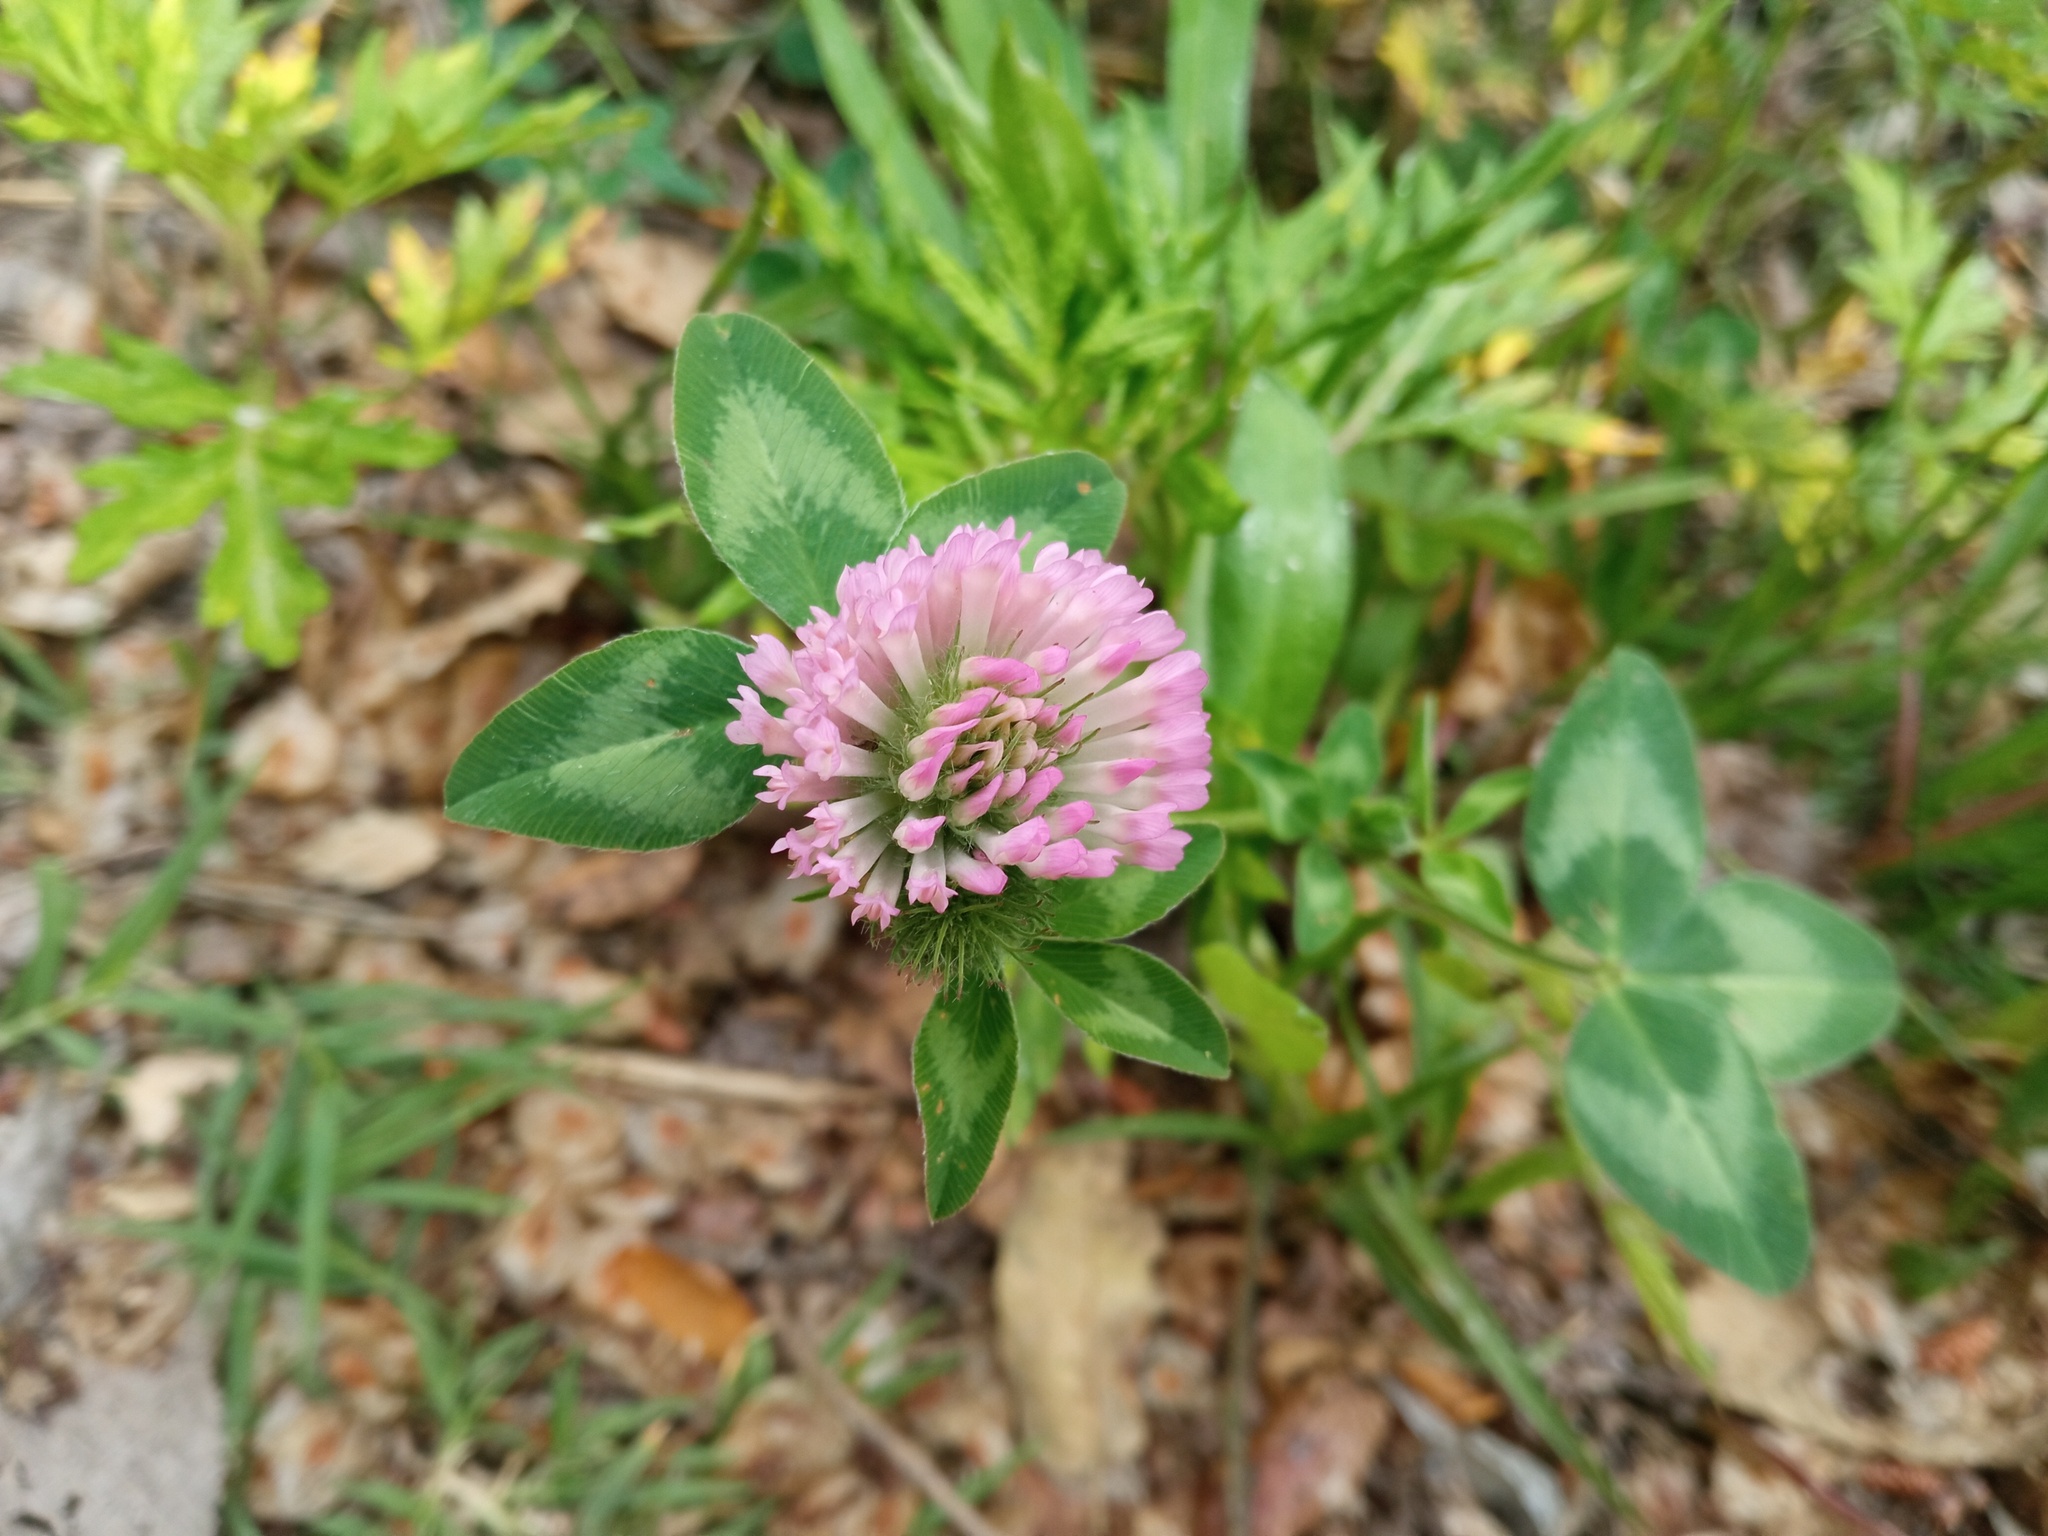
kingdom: Plantae
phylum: Tracheophyta
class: Magnoliopsida
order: Fabales
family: Fabaceae
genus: Trifolium
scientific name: Trifolium pratense
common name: Red clover
